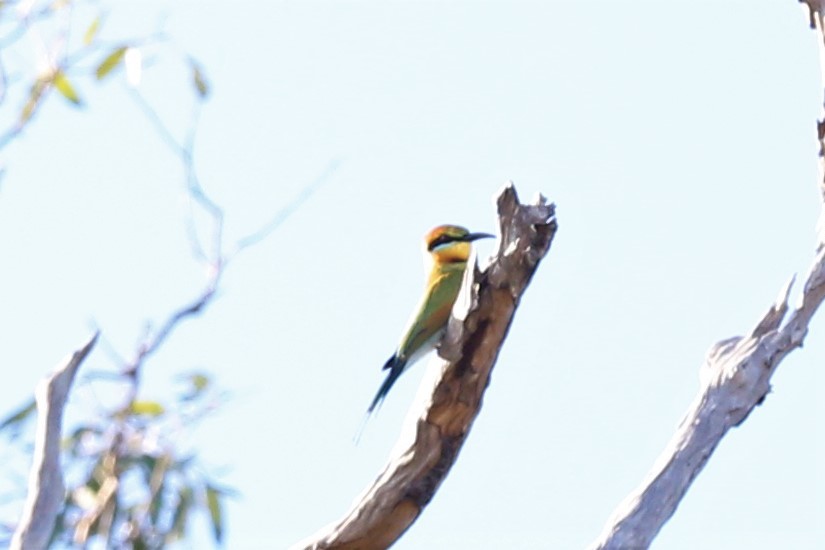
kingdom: Animalia
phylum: Chordata
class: Aves
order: Coraciiformes
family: Meropidae
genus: Merops
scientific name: Merops ornatus
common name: Rainbow bee-eater
